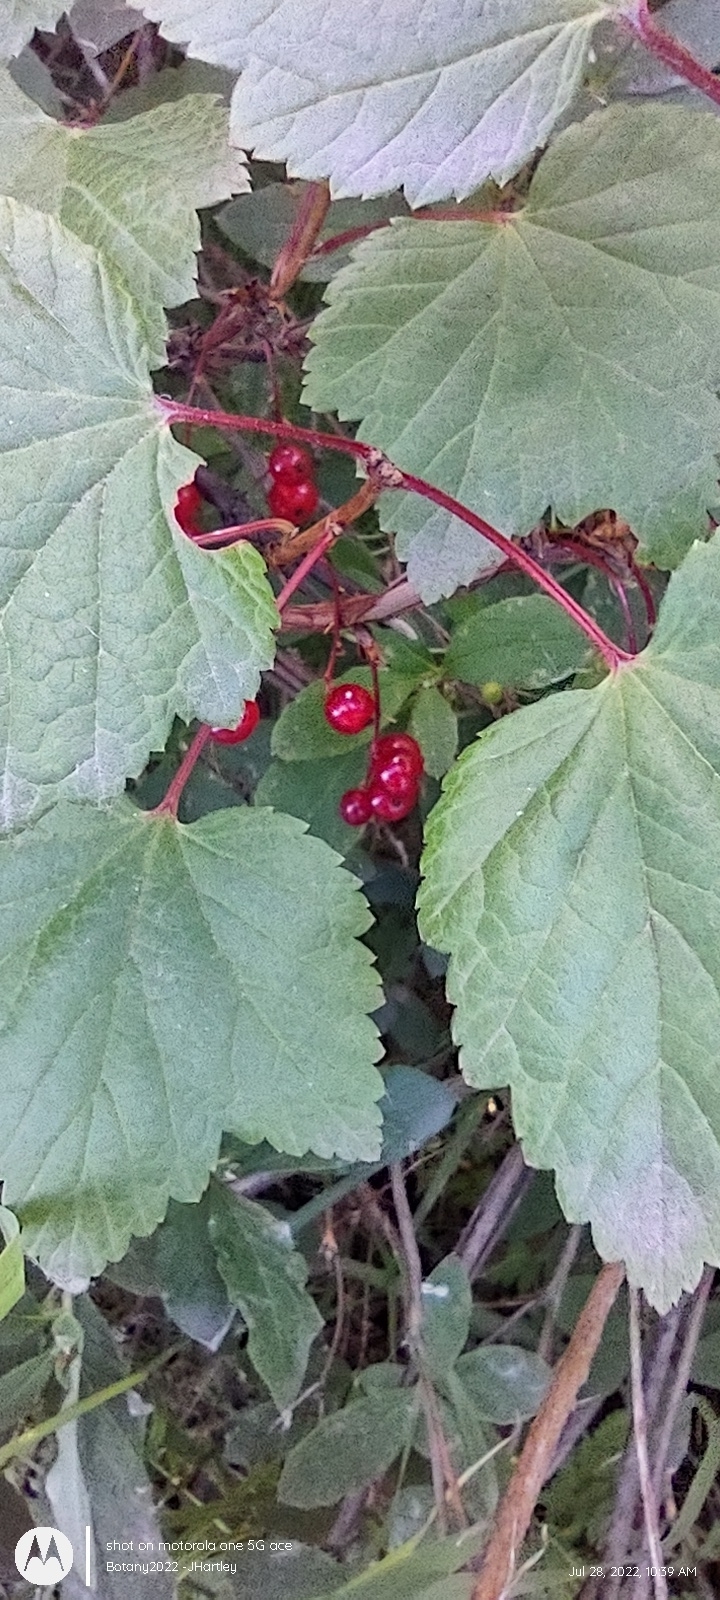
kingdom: Plantae
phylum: Tracheophyta
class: Magnoliopsida
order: Saxifragales
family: Grossulariaceae
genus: Ribes
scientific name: Ribes triste
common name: Swamp red currant
